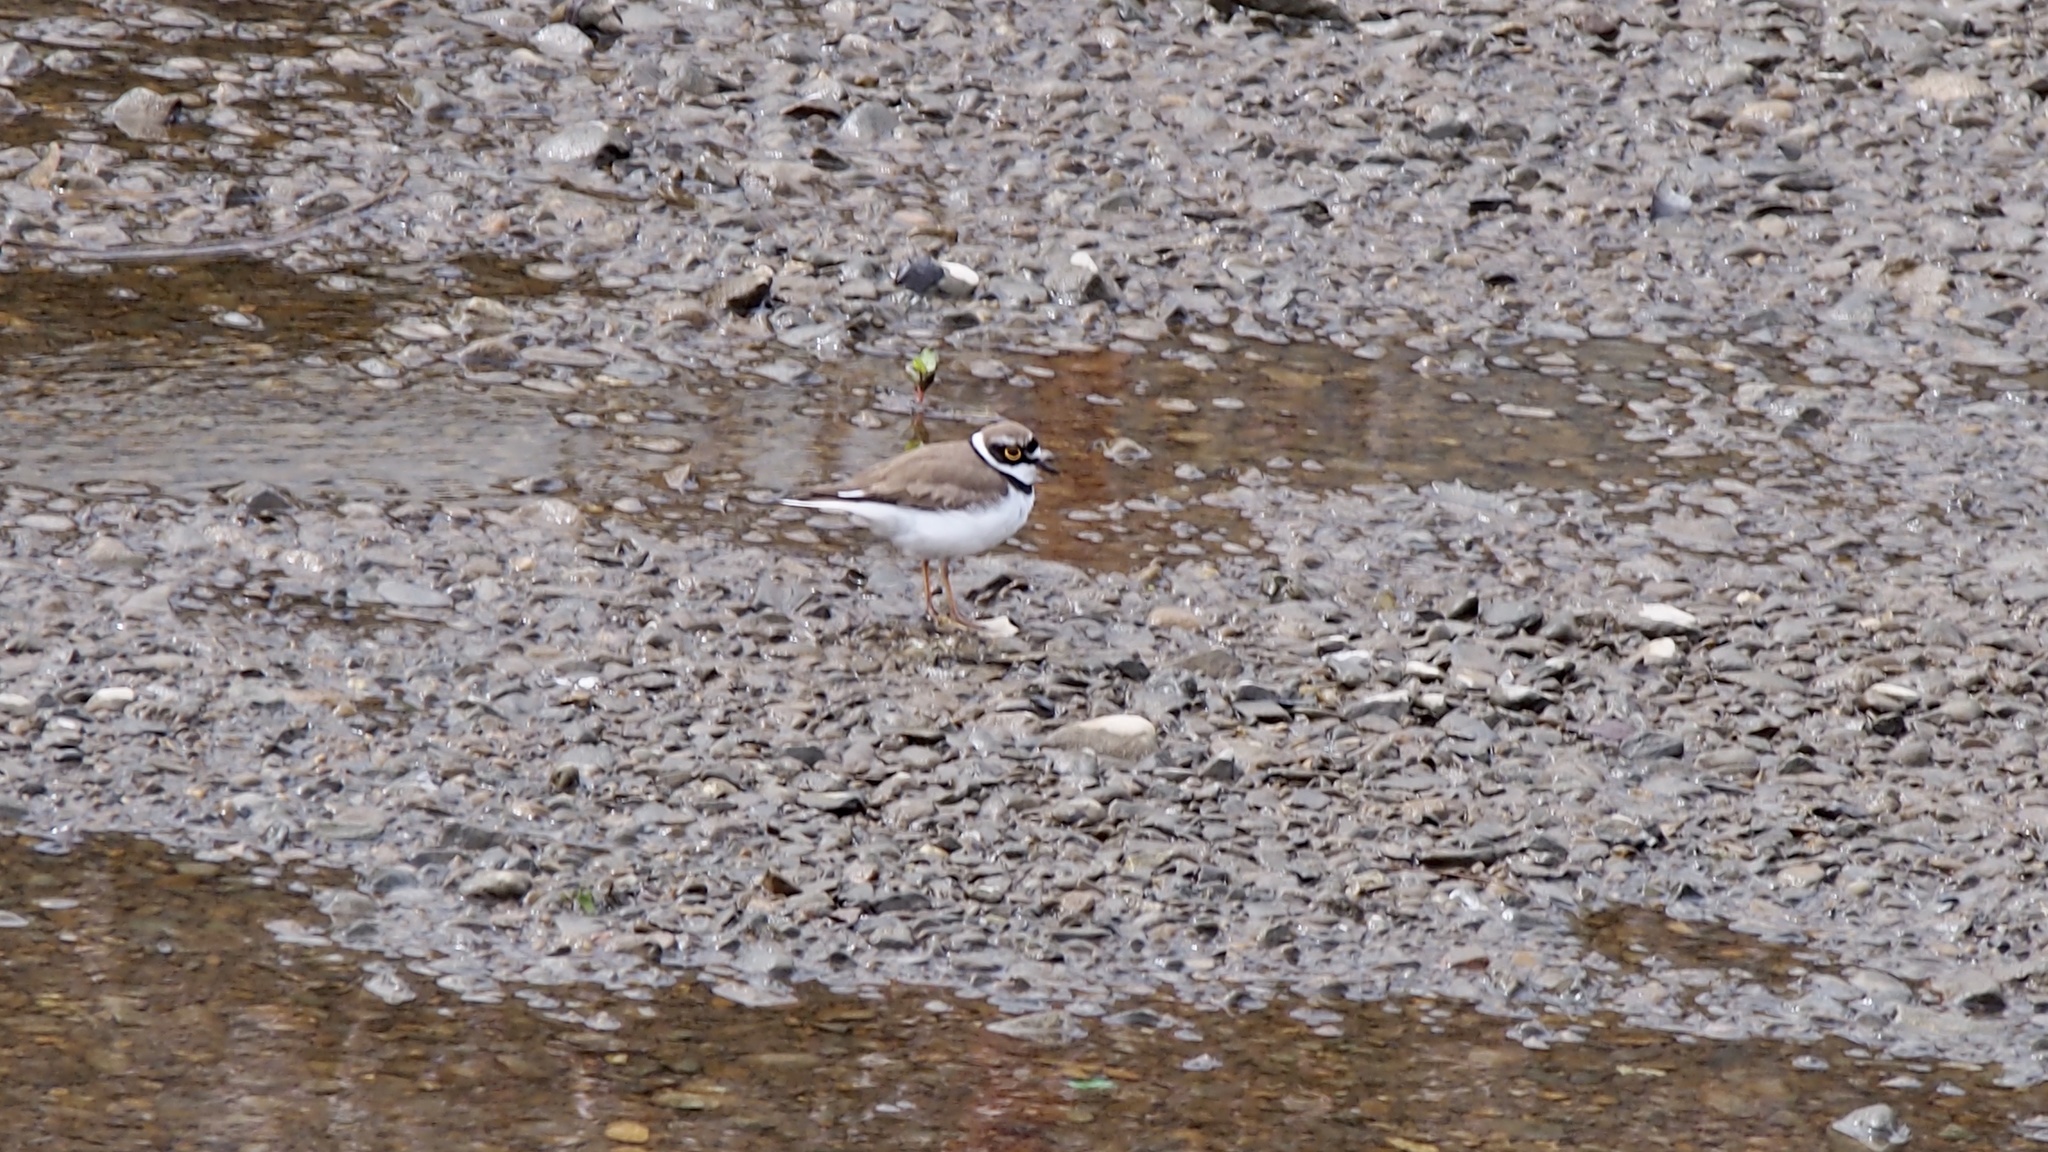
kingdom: Animalia
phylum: Chordata
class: Aves
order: Charadriiformes
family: Charadriidae
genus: Charadrius
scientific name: Charadrius dubius
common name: Little ringed plover
